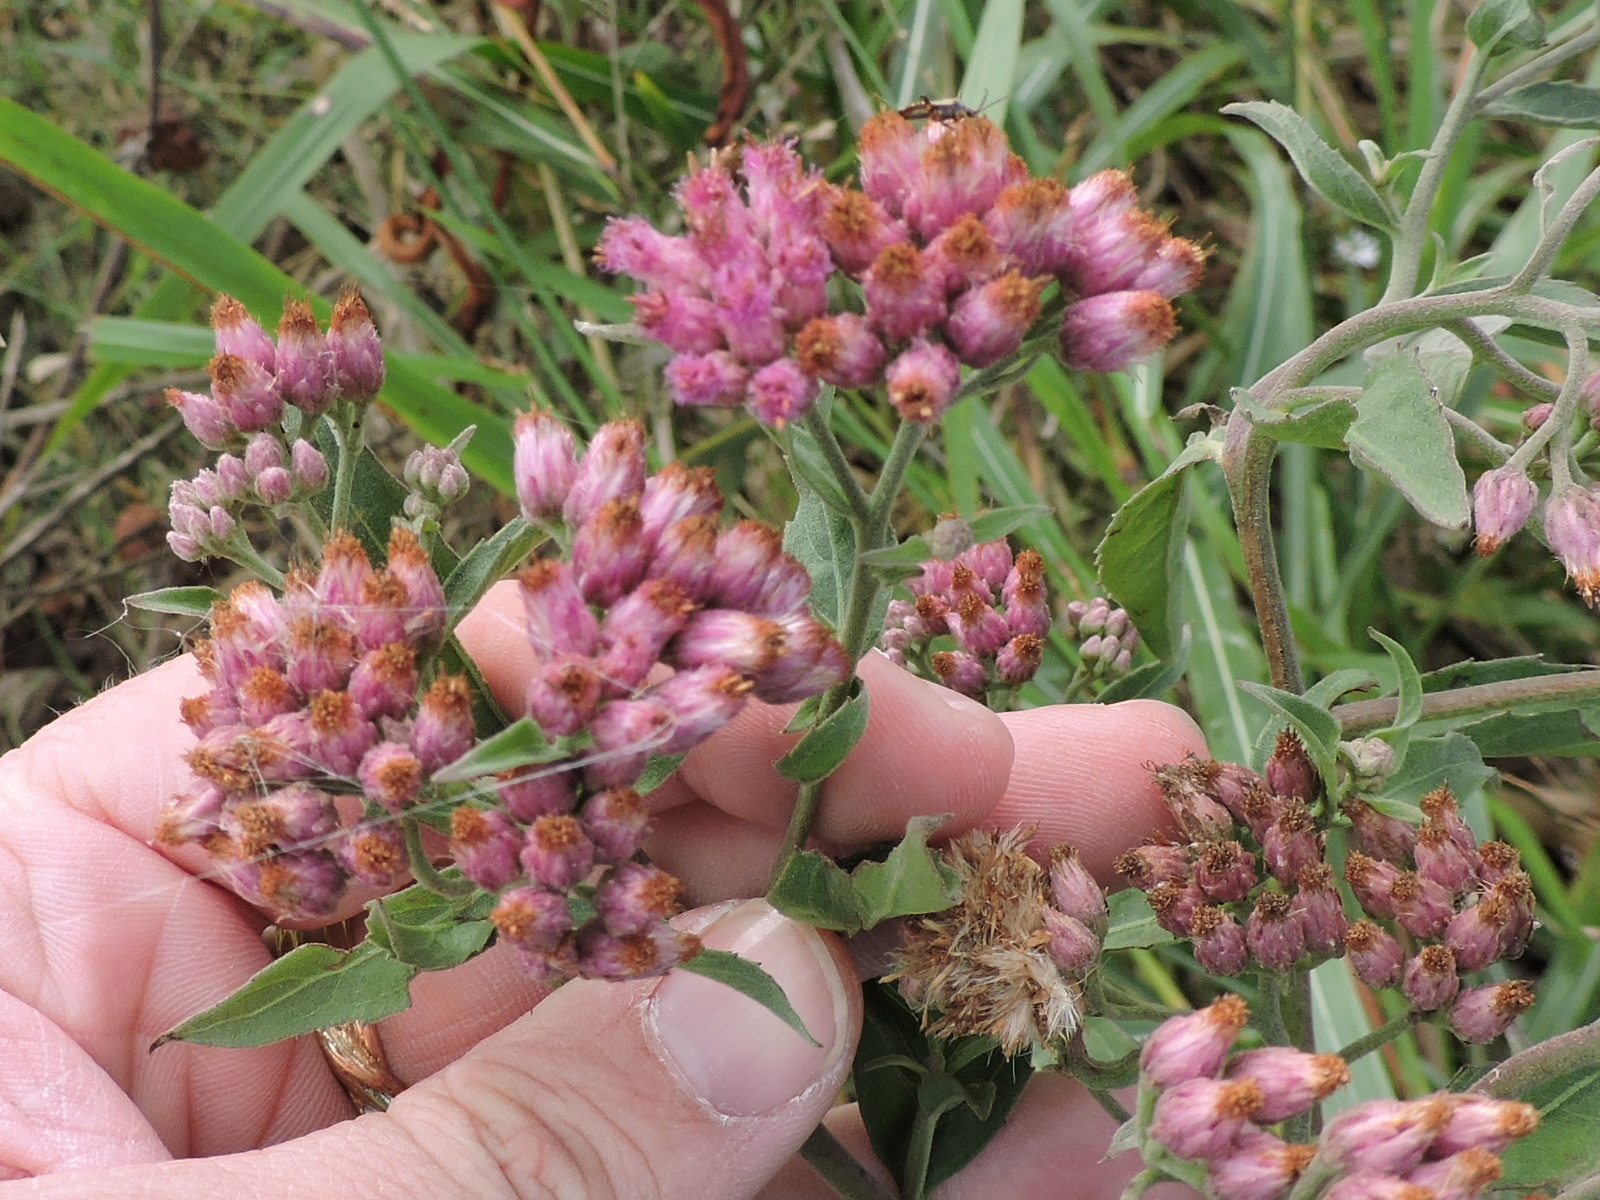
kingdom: Plantae
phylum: Tracheophyta
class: Magnoliopsida
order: Asterales
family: Asteraceae
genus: Pluchea
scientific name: Pluchea odorata
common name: Saltmarsh fleabane
